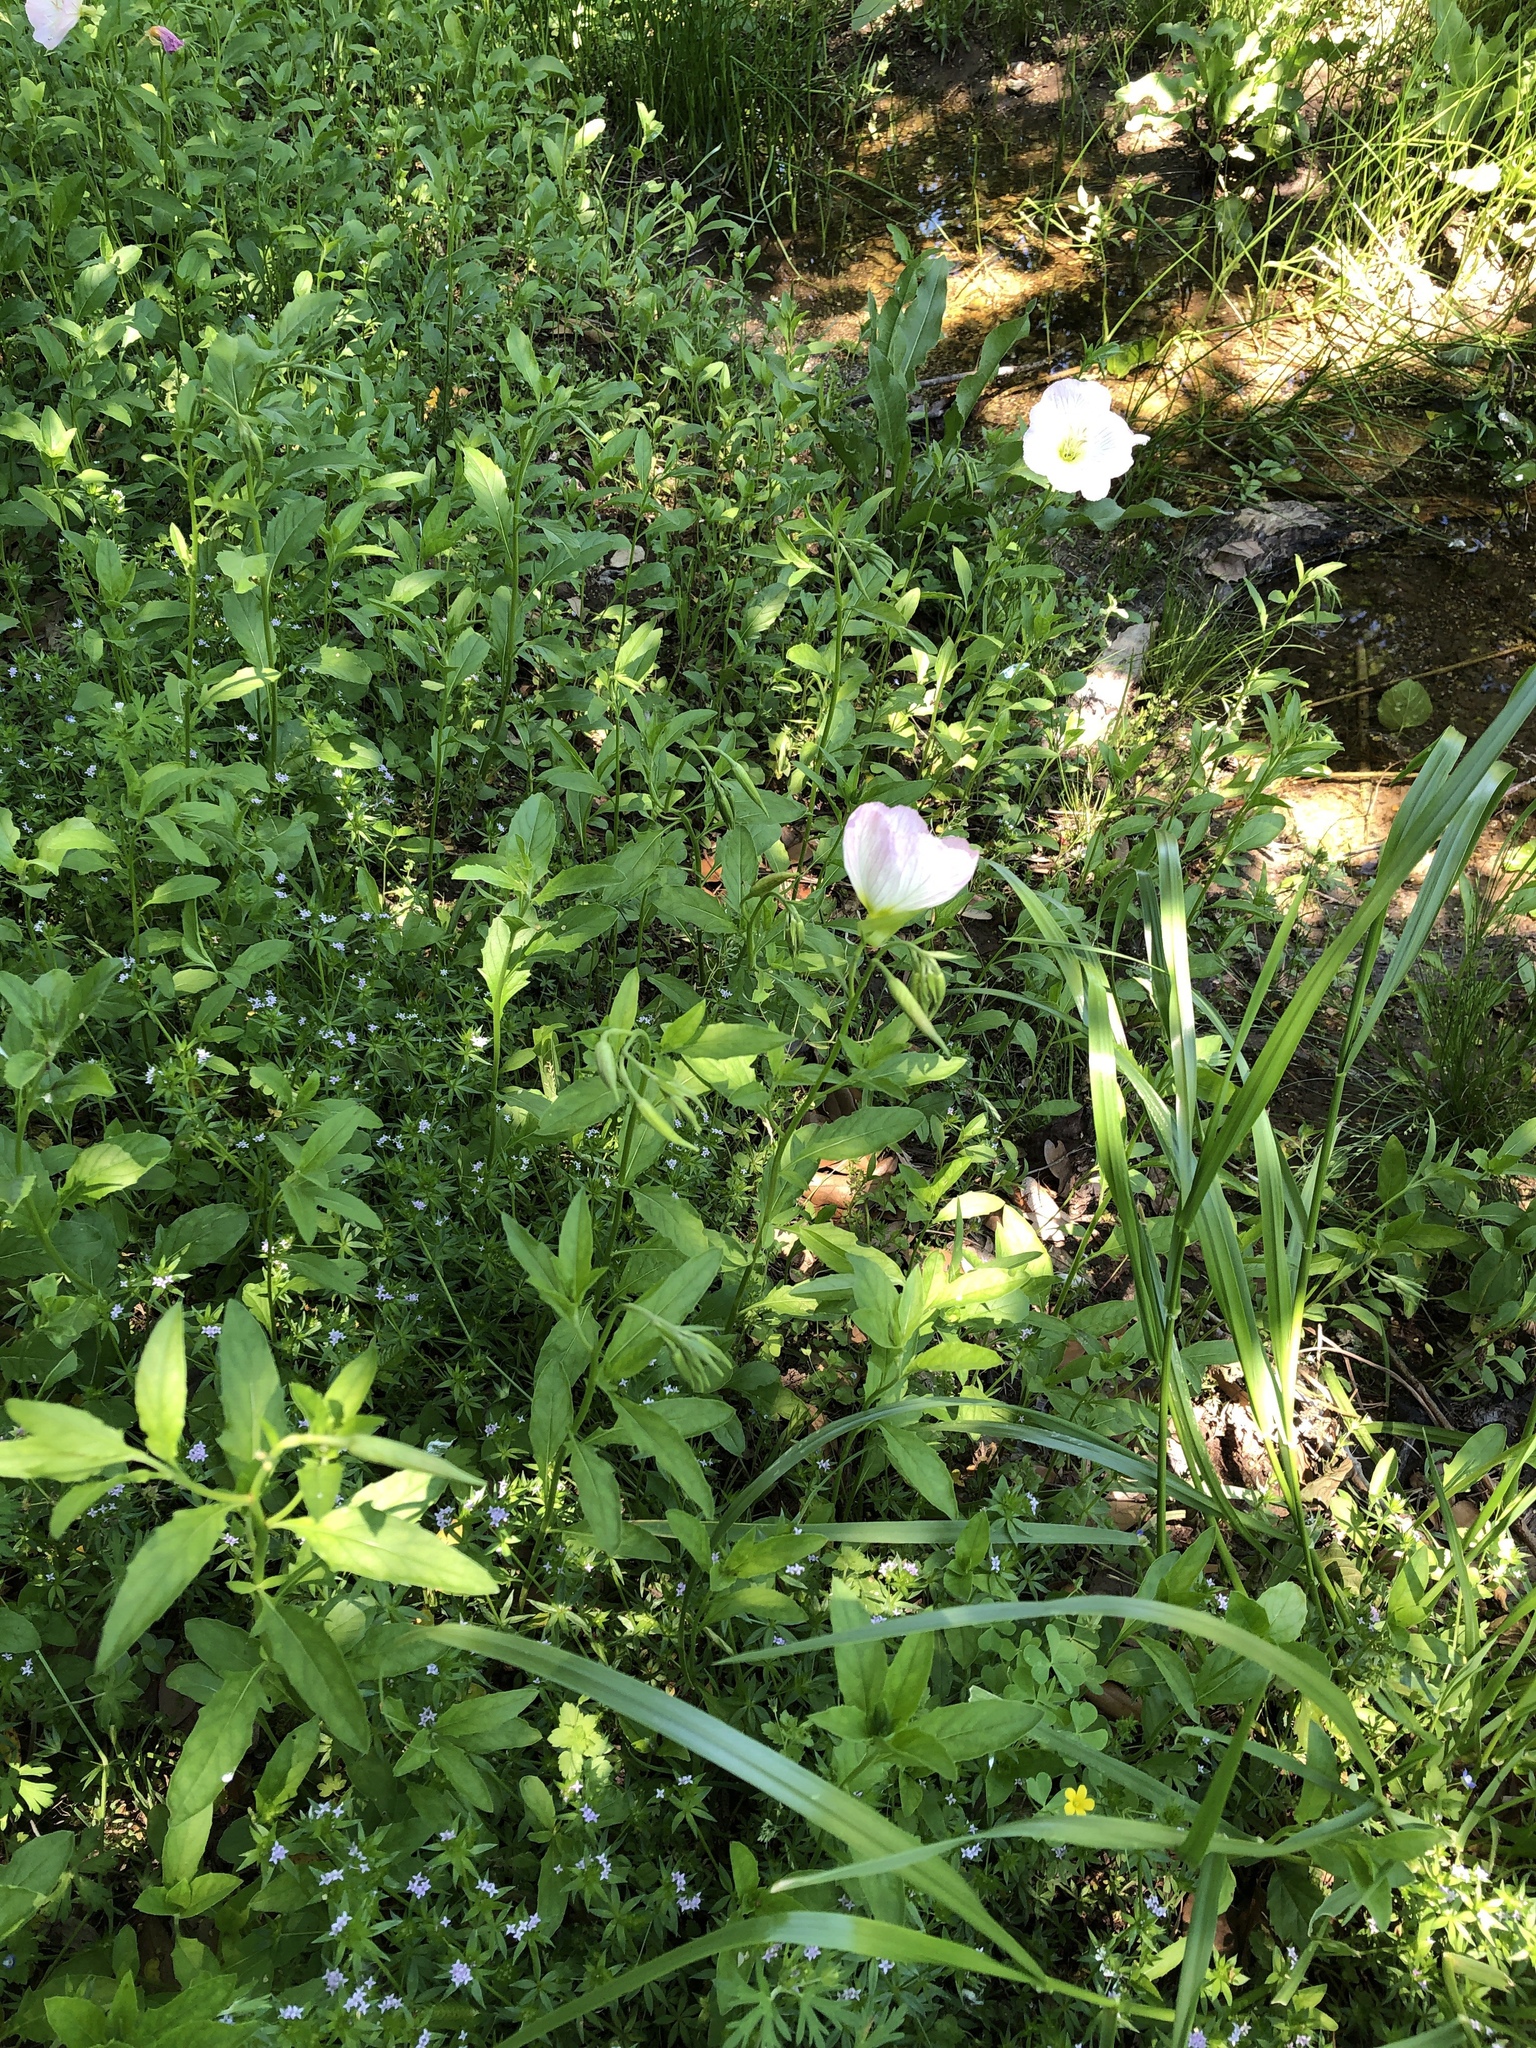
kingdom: Plantae
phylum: Tracheophyta
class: Magnoliopsida
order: Myrtales
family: Onagraceae
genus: Oenothera
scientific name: Oenothera speciosa
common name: White evening-primrose
